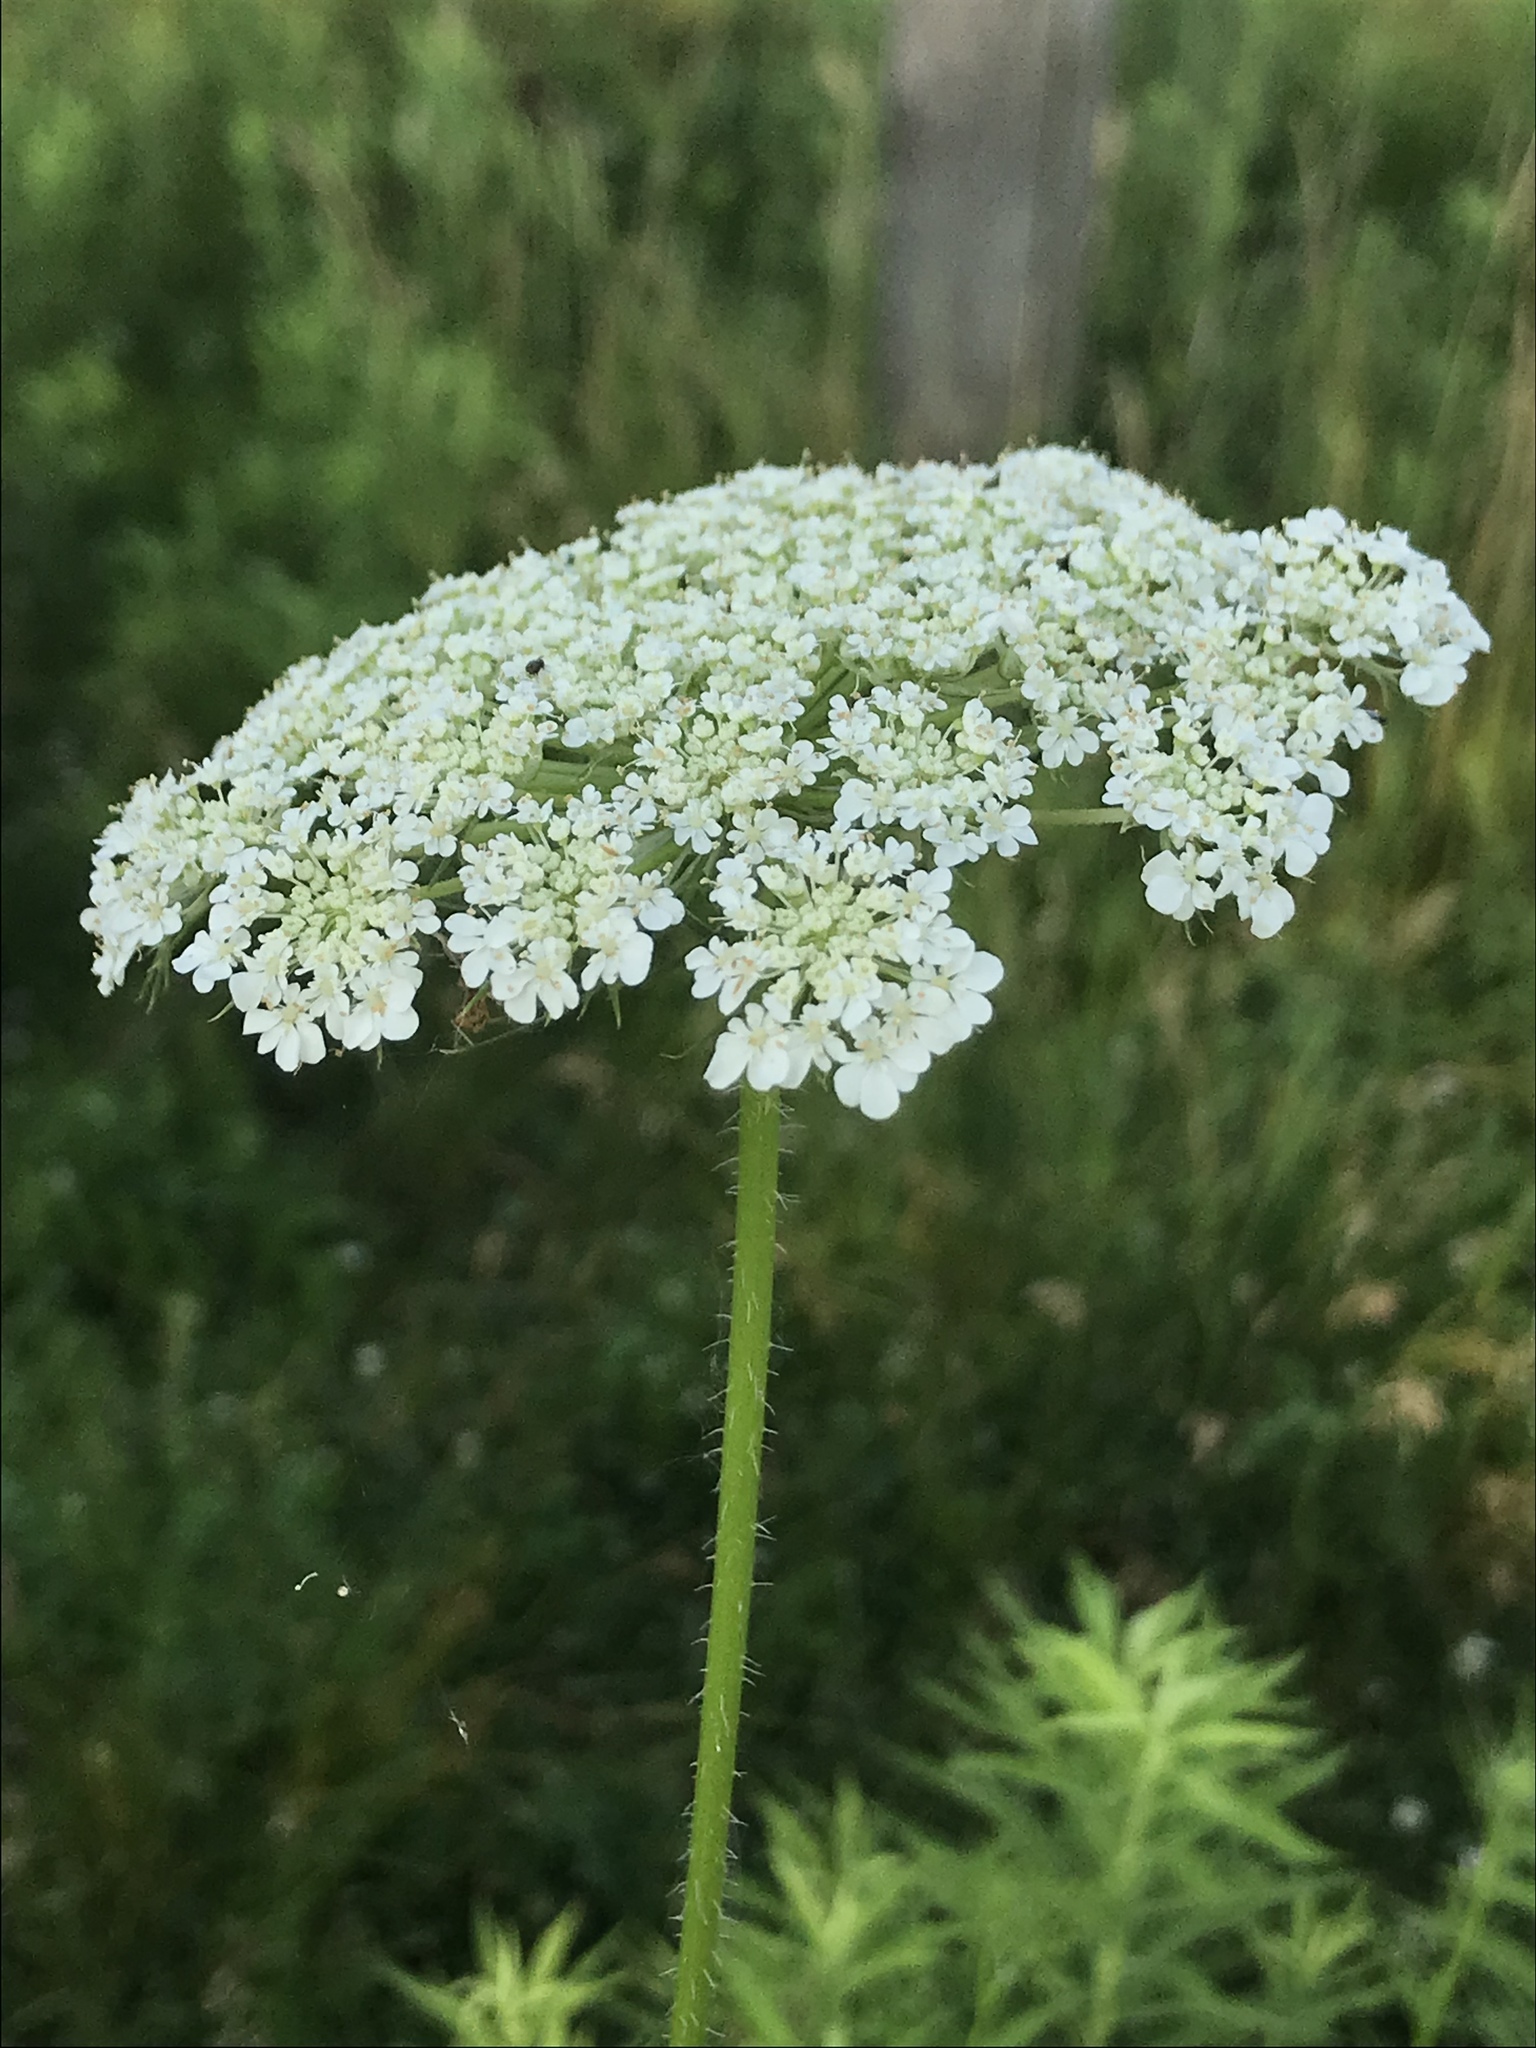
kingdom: Plantae
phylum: Tracheophyta
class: Magnoliopsida
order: Apiales
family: Apiaceae
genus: Daucus
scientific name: Daucus carota
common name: Wild carrot
